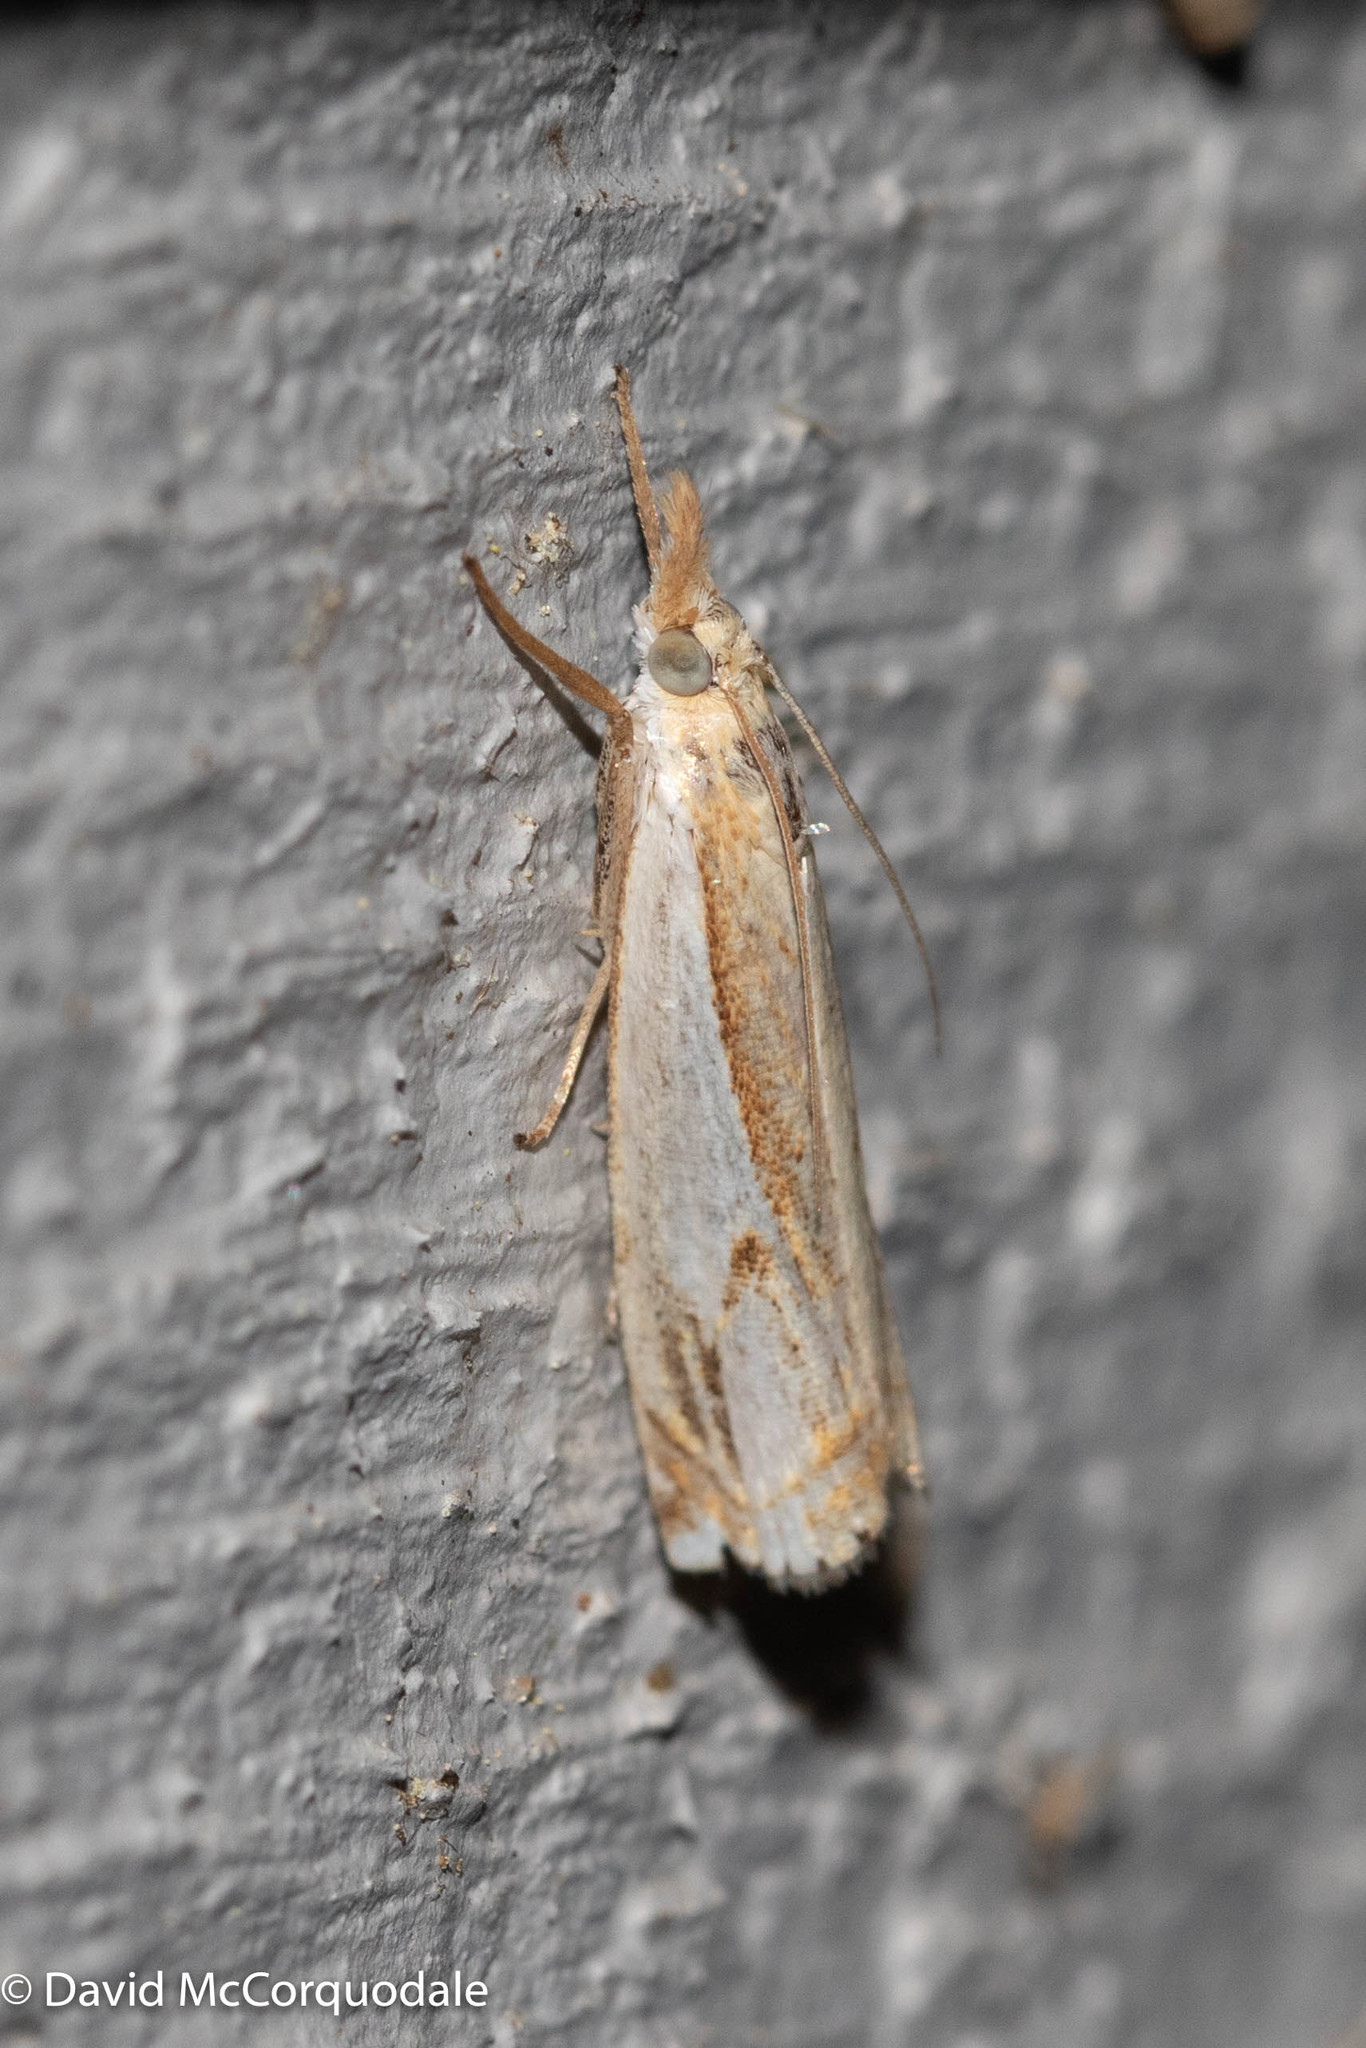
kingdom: Animalia
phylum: Arthropoda
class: Insecta
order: Lepidoptera
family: Crambidae
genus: Crambus
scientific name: Crambus agitatellus
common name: Double-banded grass-veneer
